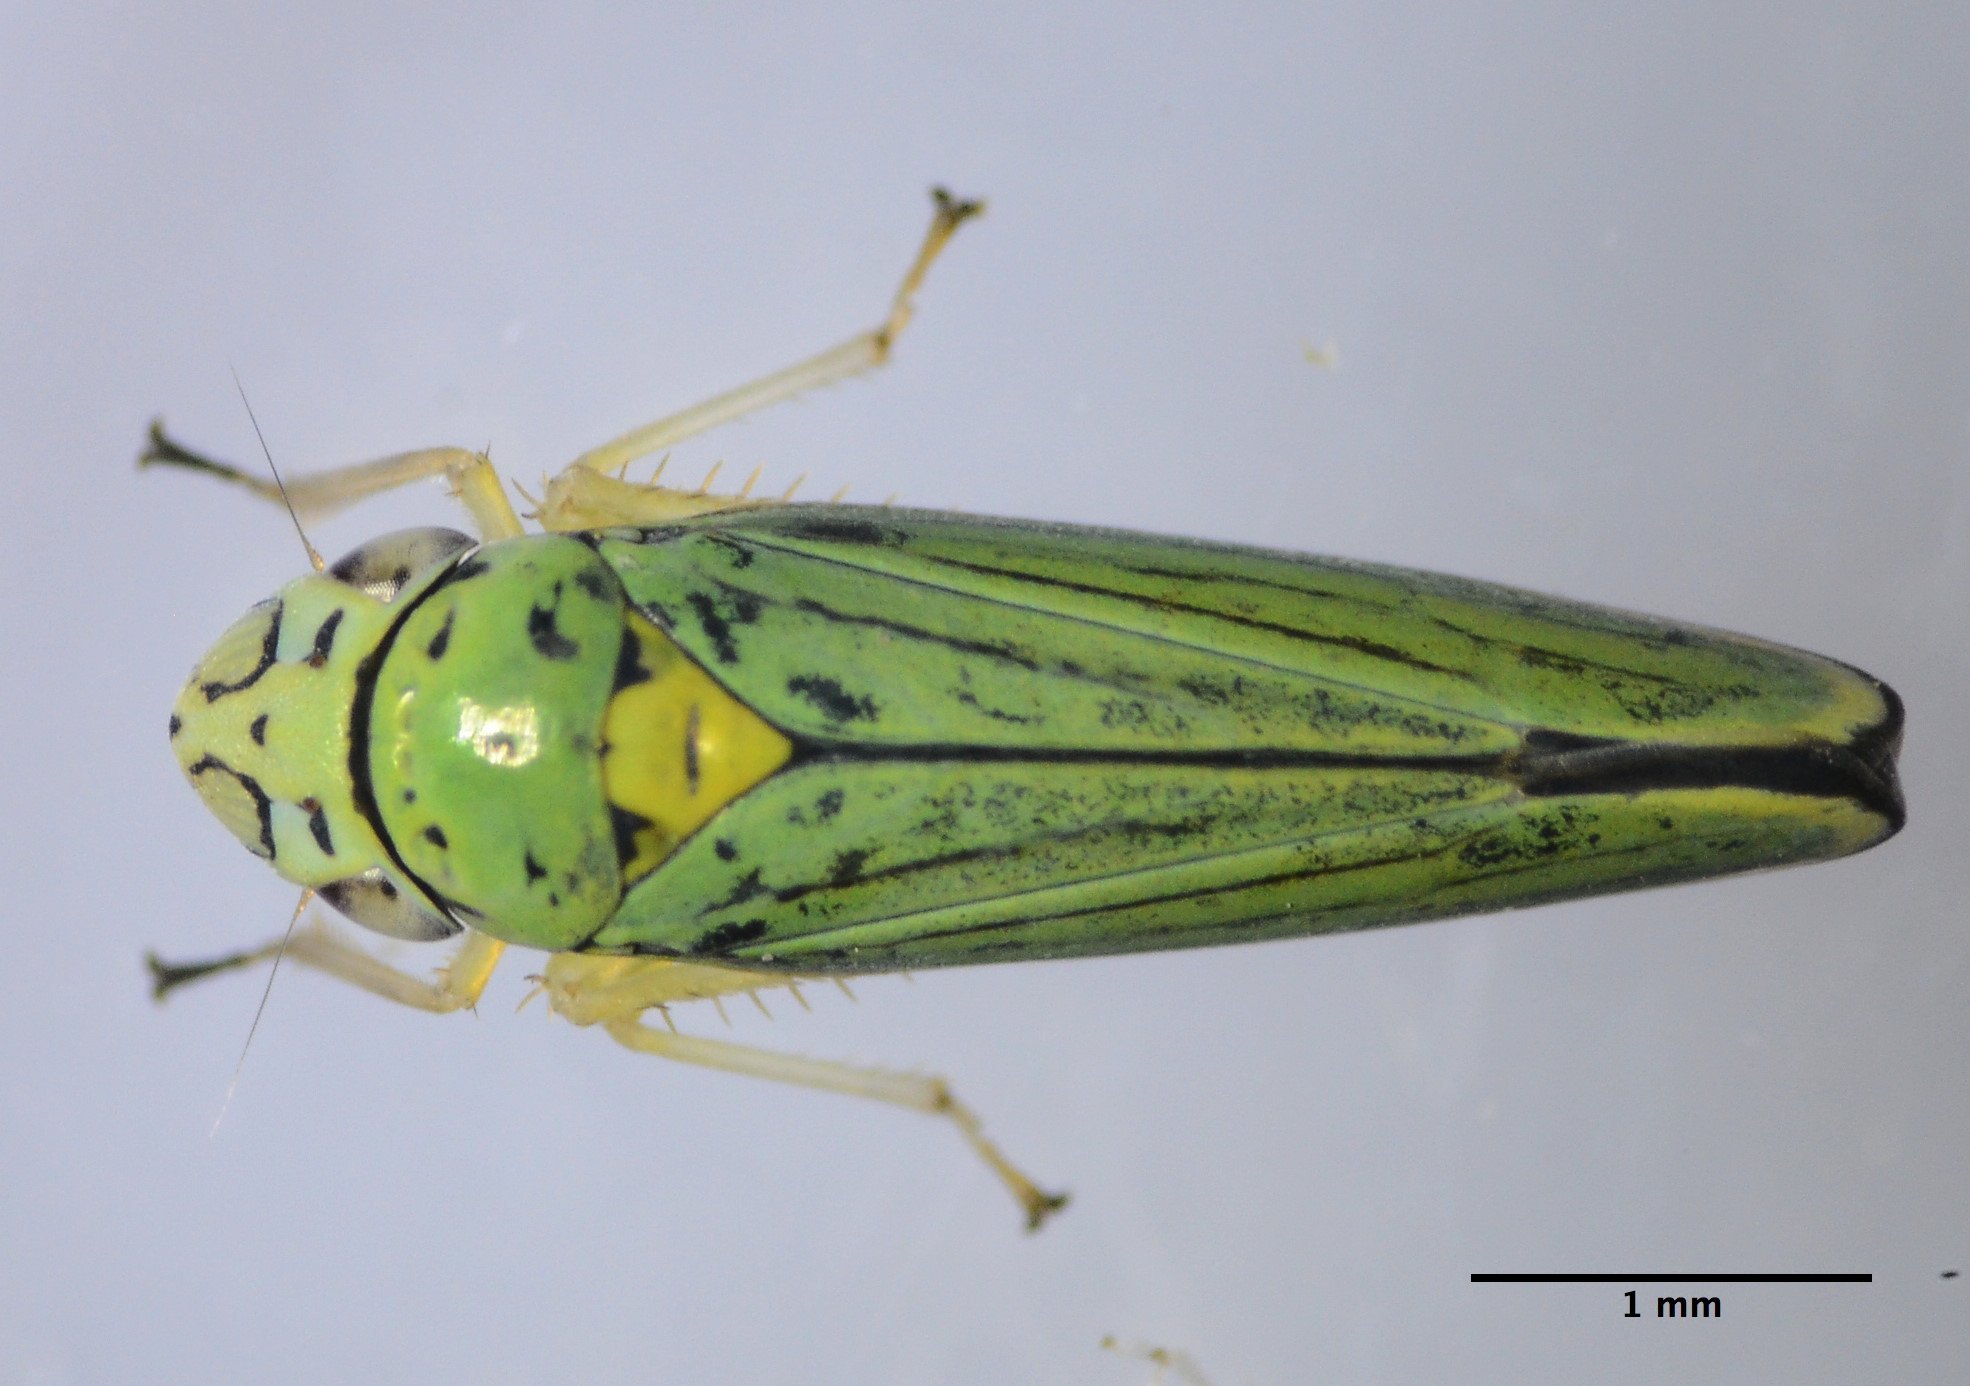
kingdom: Animalia
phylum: Arthropoda
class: Insecta
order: Hemiptera
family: Cicadellidae
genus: Graphocephala
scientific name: Graphocephala atropunctata
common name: Blue-green sharpshooter
